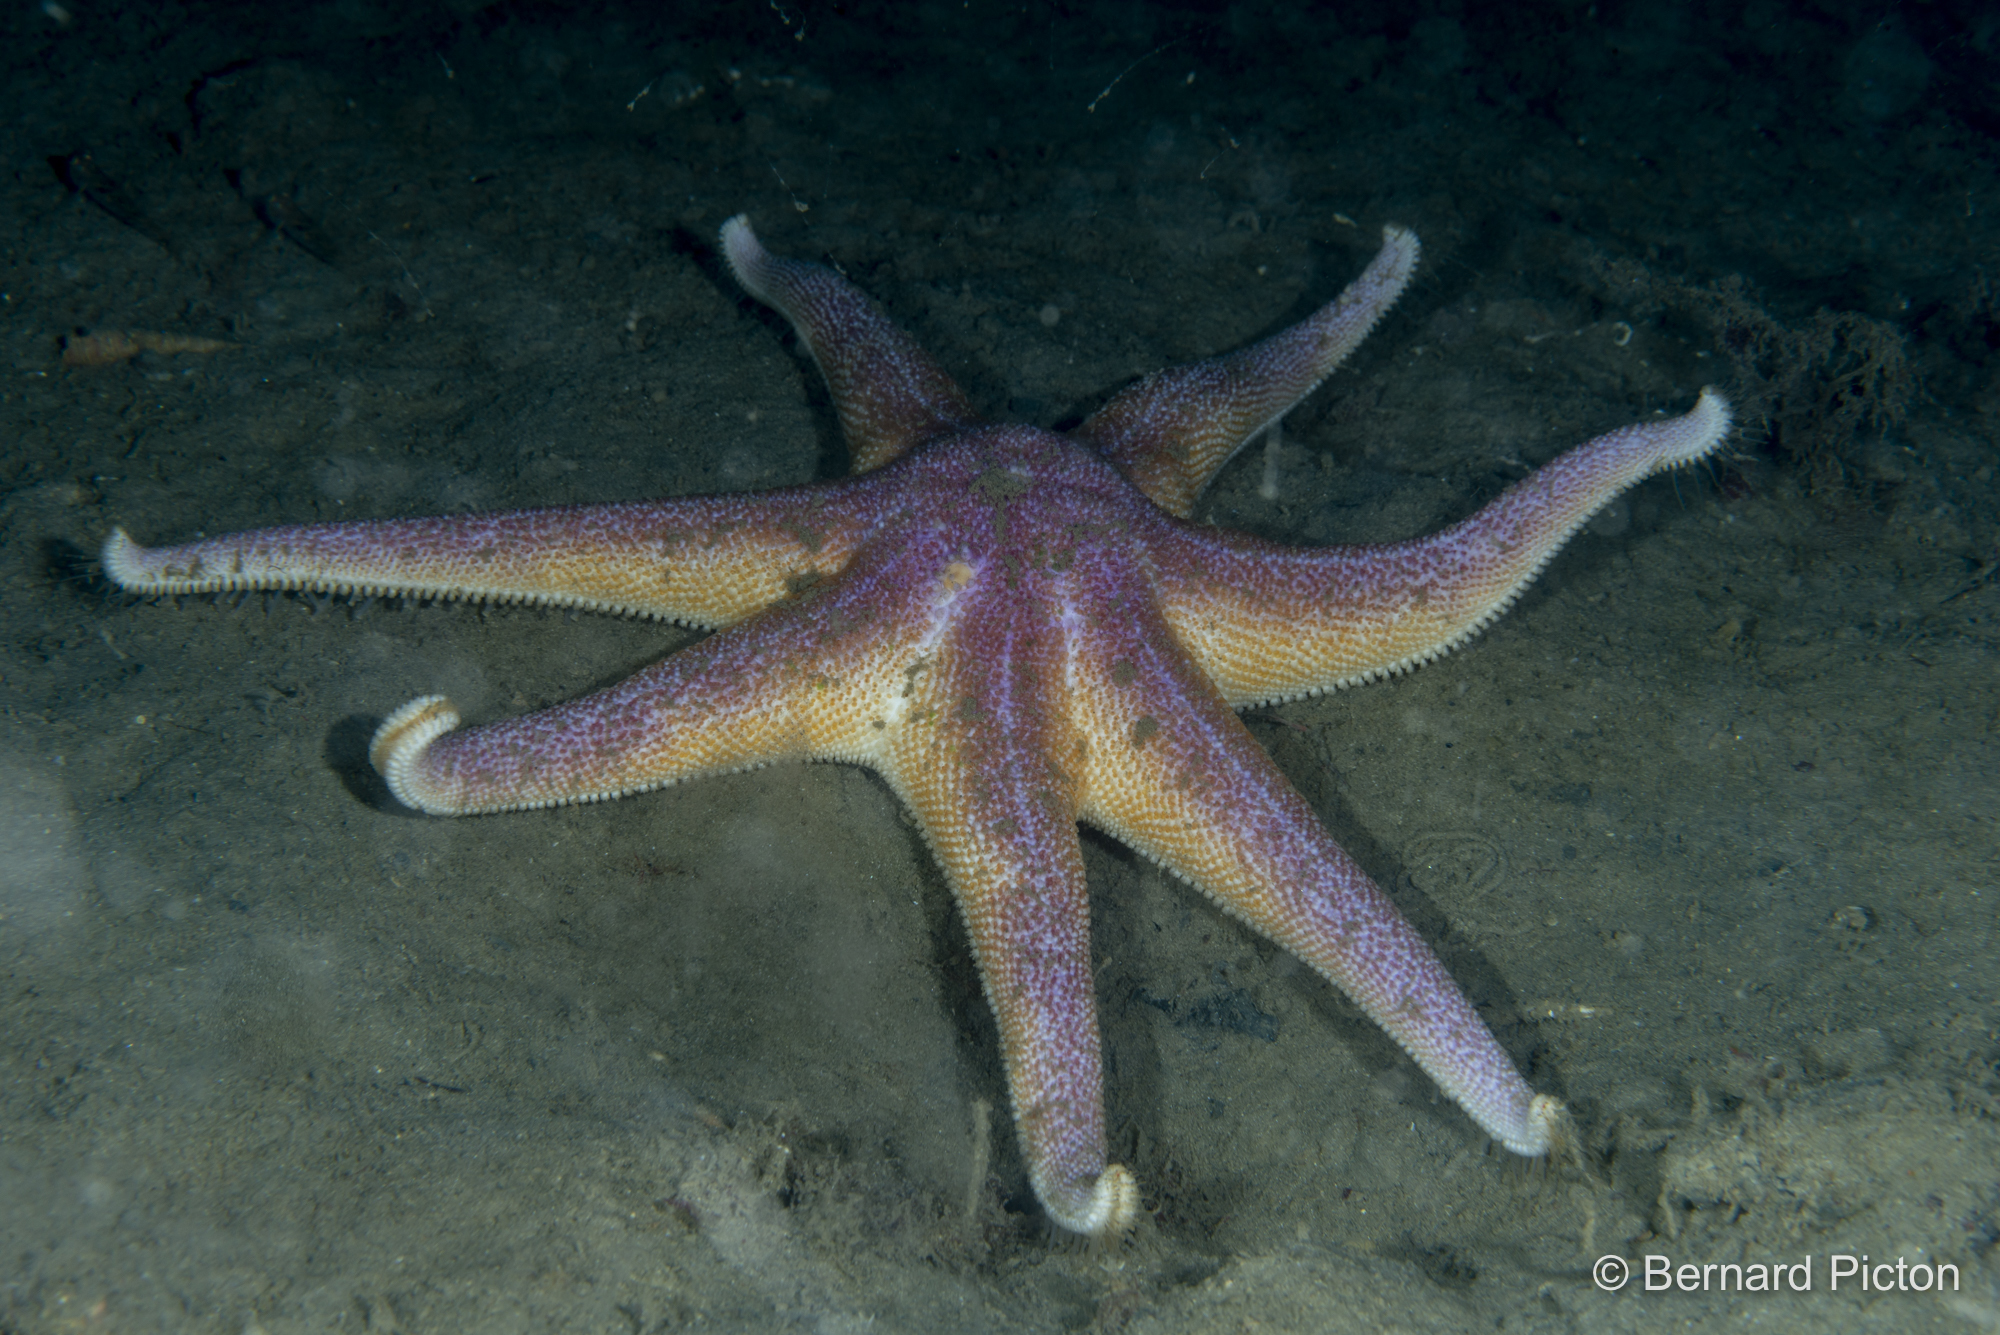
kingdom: Animalia
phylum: Echinodermata
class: Asteroidea
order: Valvatida
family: Solasteridae
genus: Solaster
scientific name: Solaster endeca
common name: Purple sun star
